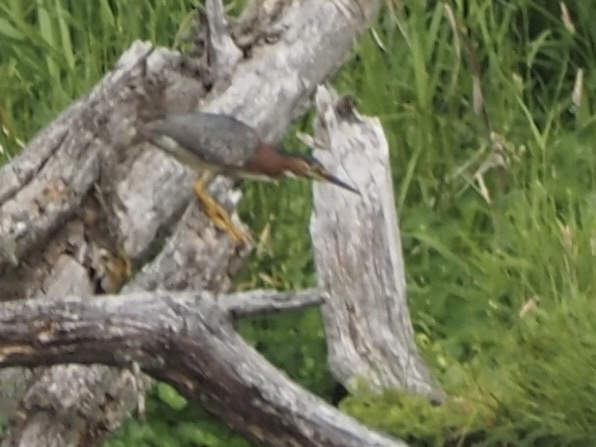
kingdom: Animalia
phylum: Chordata
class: Aves
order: Pelecaniformes
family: Ardeidae
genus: Butorides
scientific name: Butorides virescens
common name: Green heron
